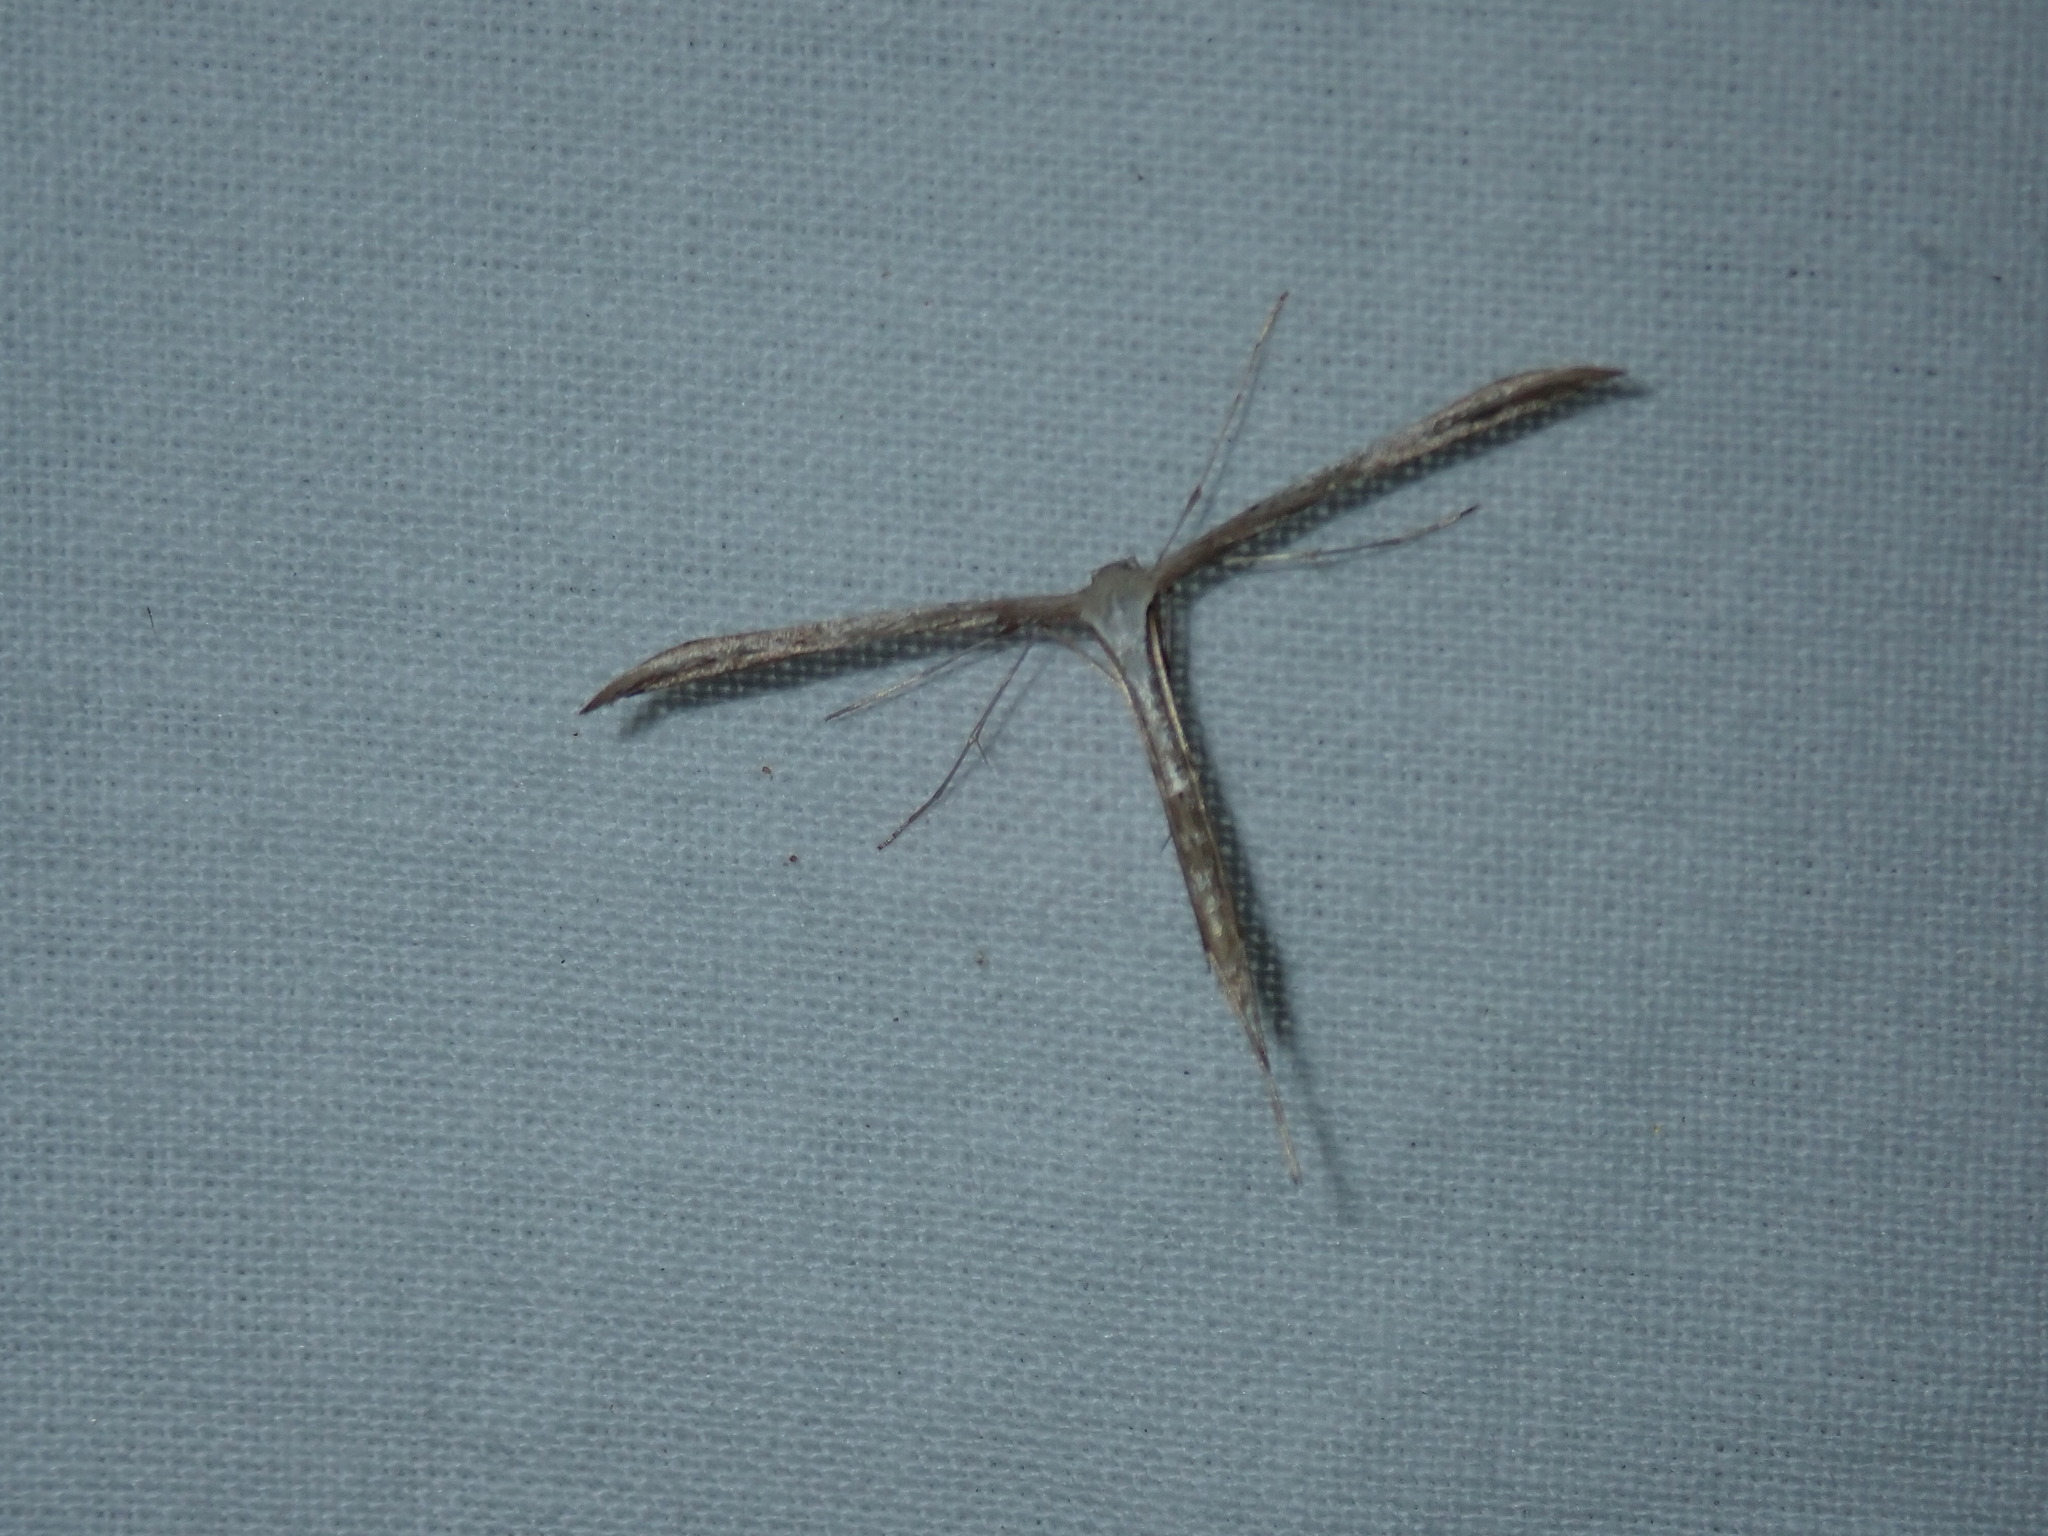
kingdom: Animalia
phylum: Arthropoda
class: Insecta
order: Lepidoptera
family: Pterophoridae
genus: Emmelina
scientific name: Emmelina monodactyla
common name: Common plume
